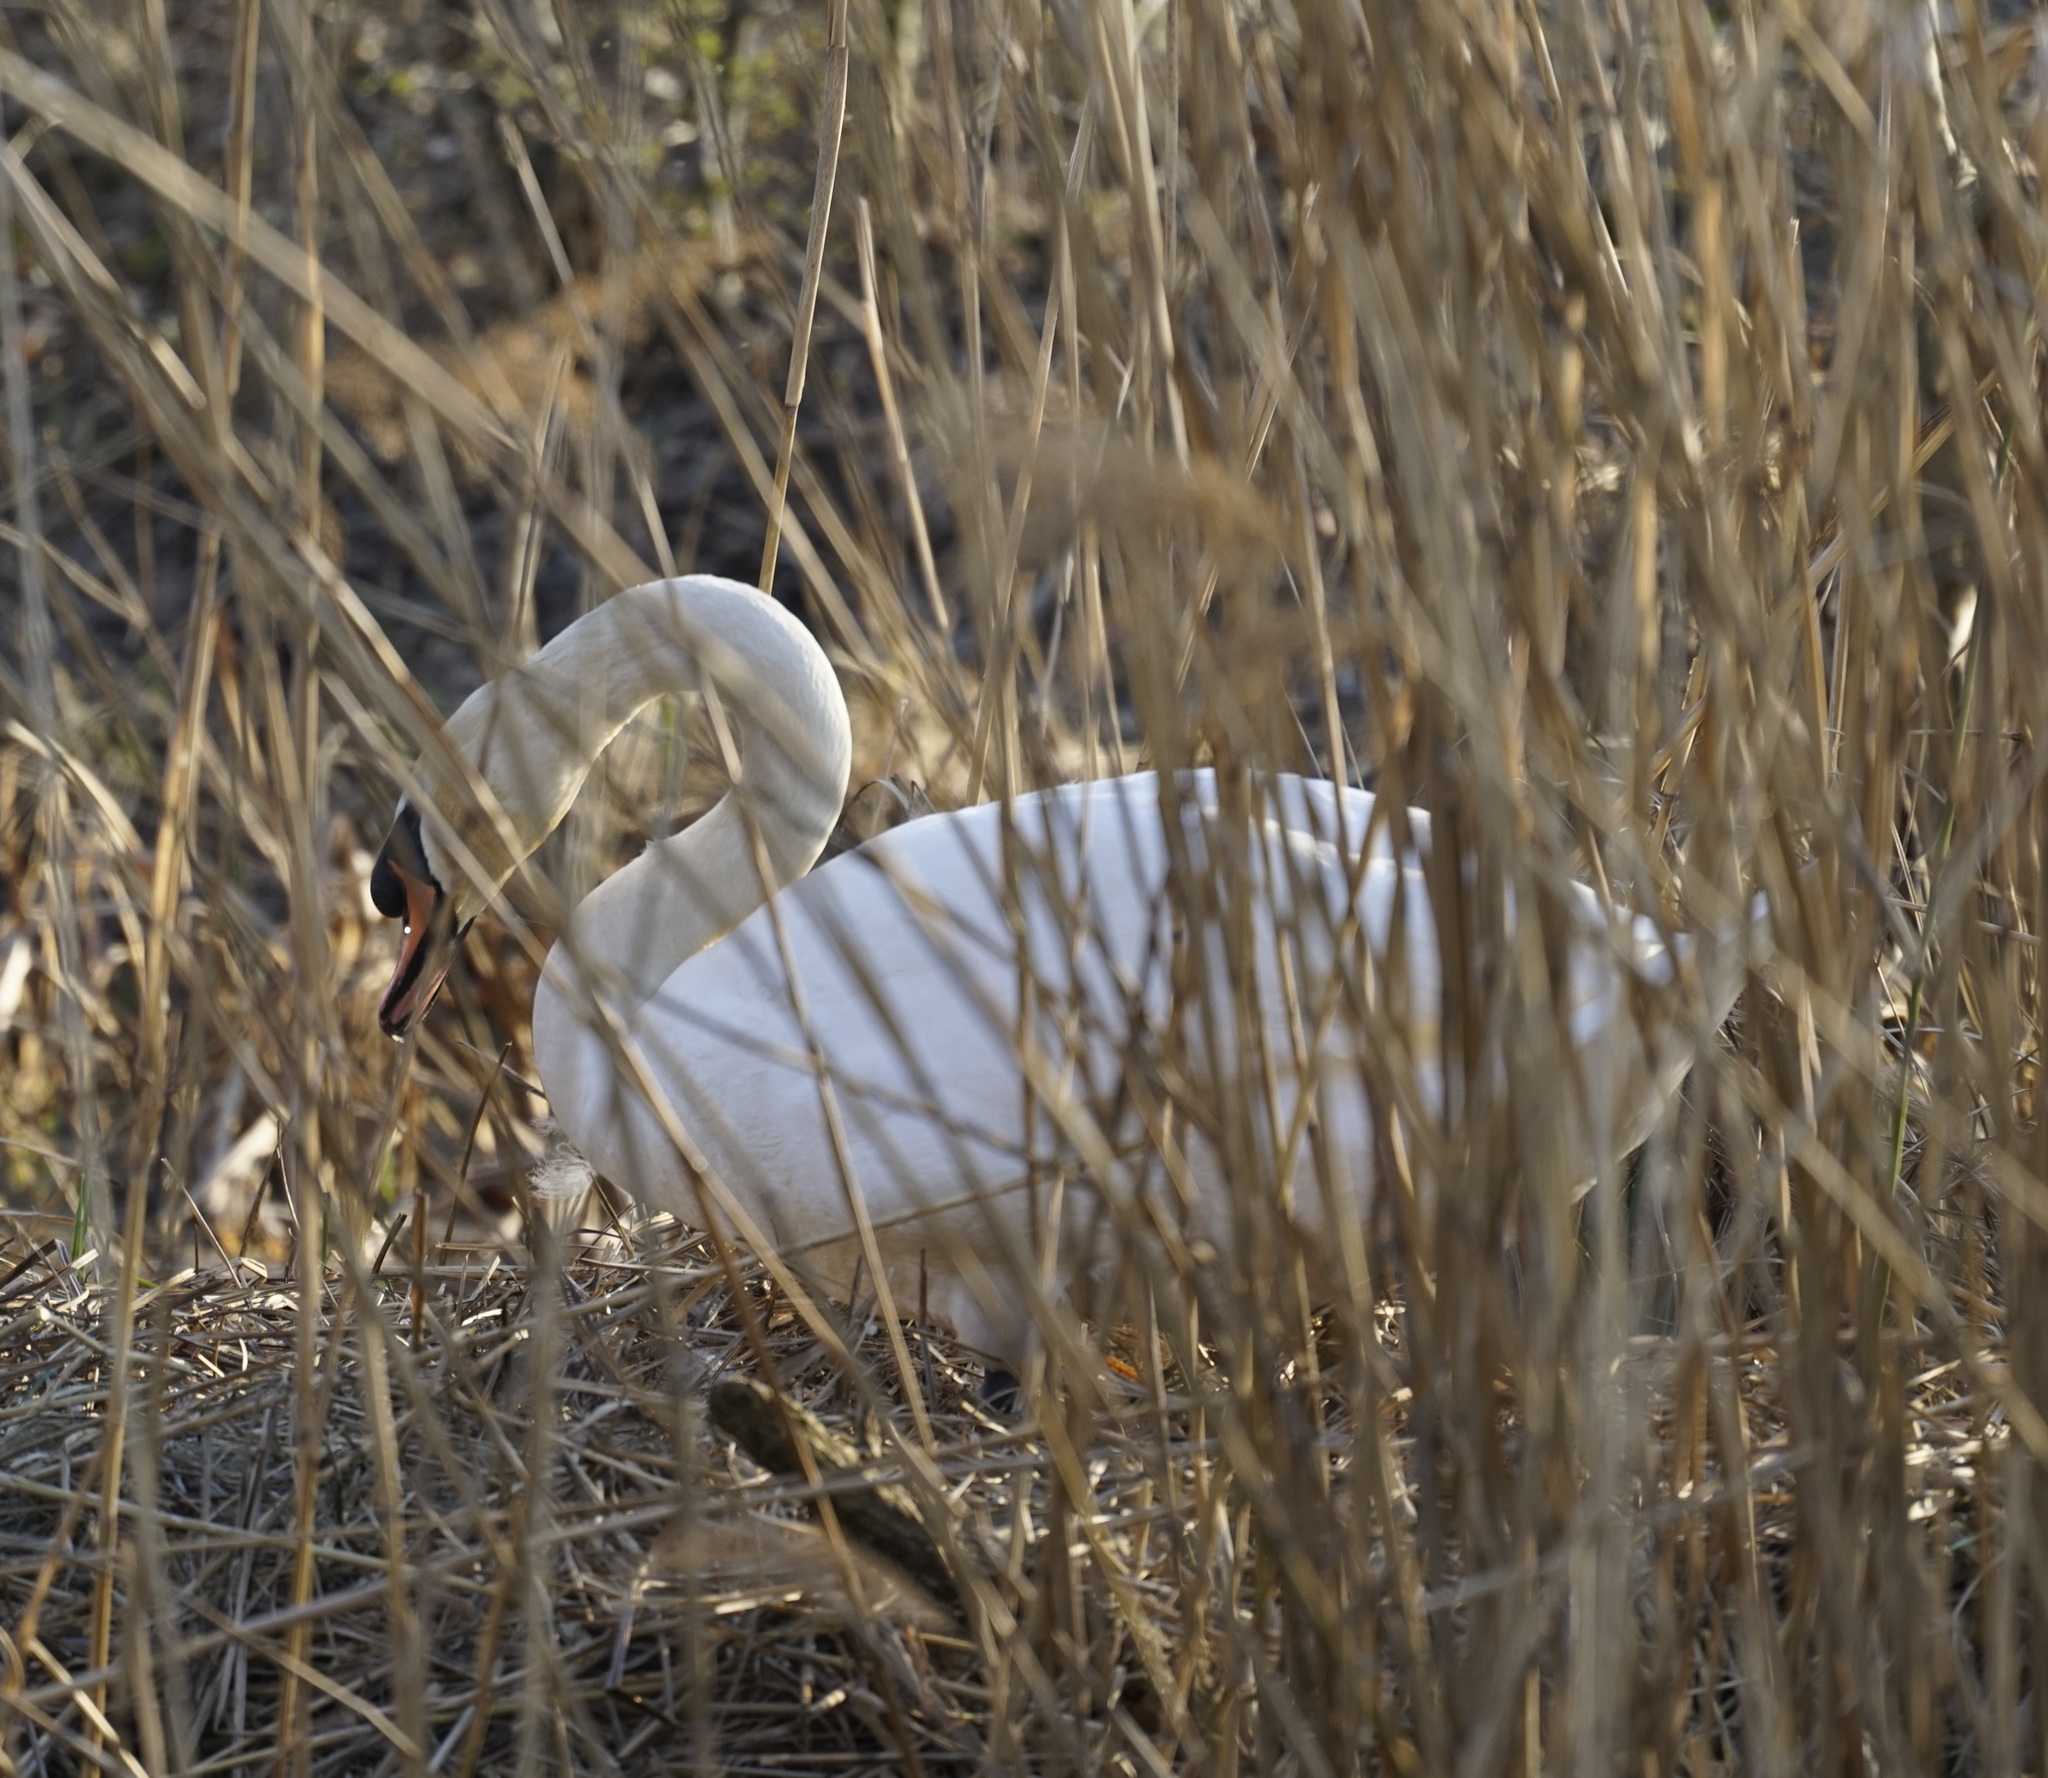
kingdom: Animalia
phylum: Chordata
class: Aves
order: Anseriformes
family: Anatidae
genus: Cygnus
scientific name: Cygnus olor
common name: Mute swan
